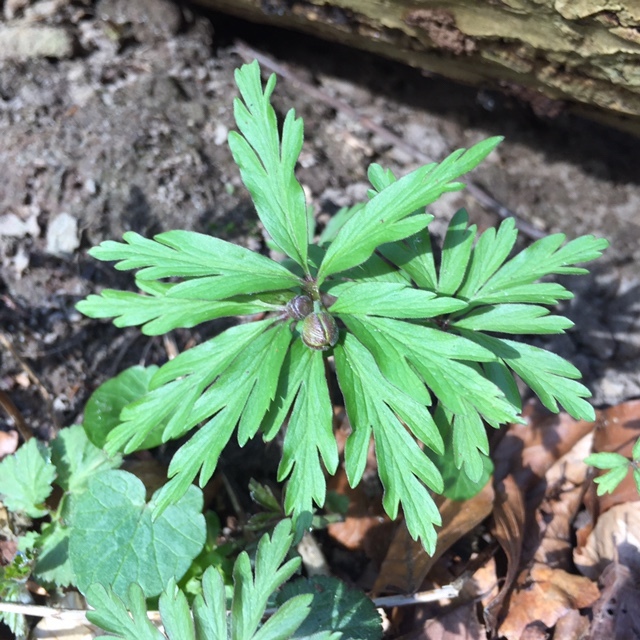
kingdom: Plantae
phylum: Tracheophyta
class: Magnoliopsida
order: Ranunculales
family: Ranunculaceae
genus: Anemone
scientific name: Anemone ranunculoides
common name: Yellow anemone
